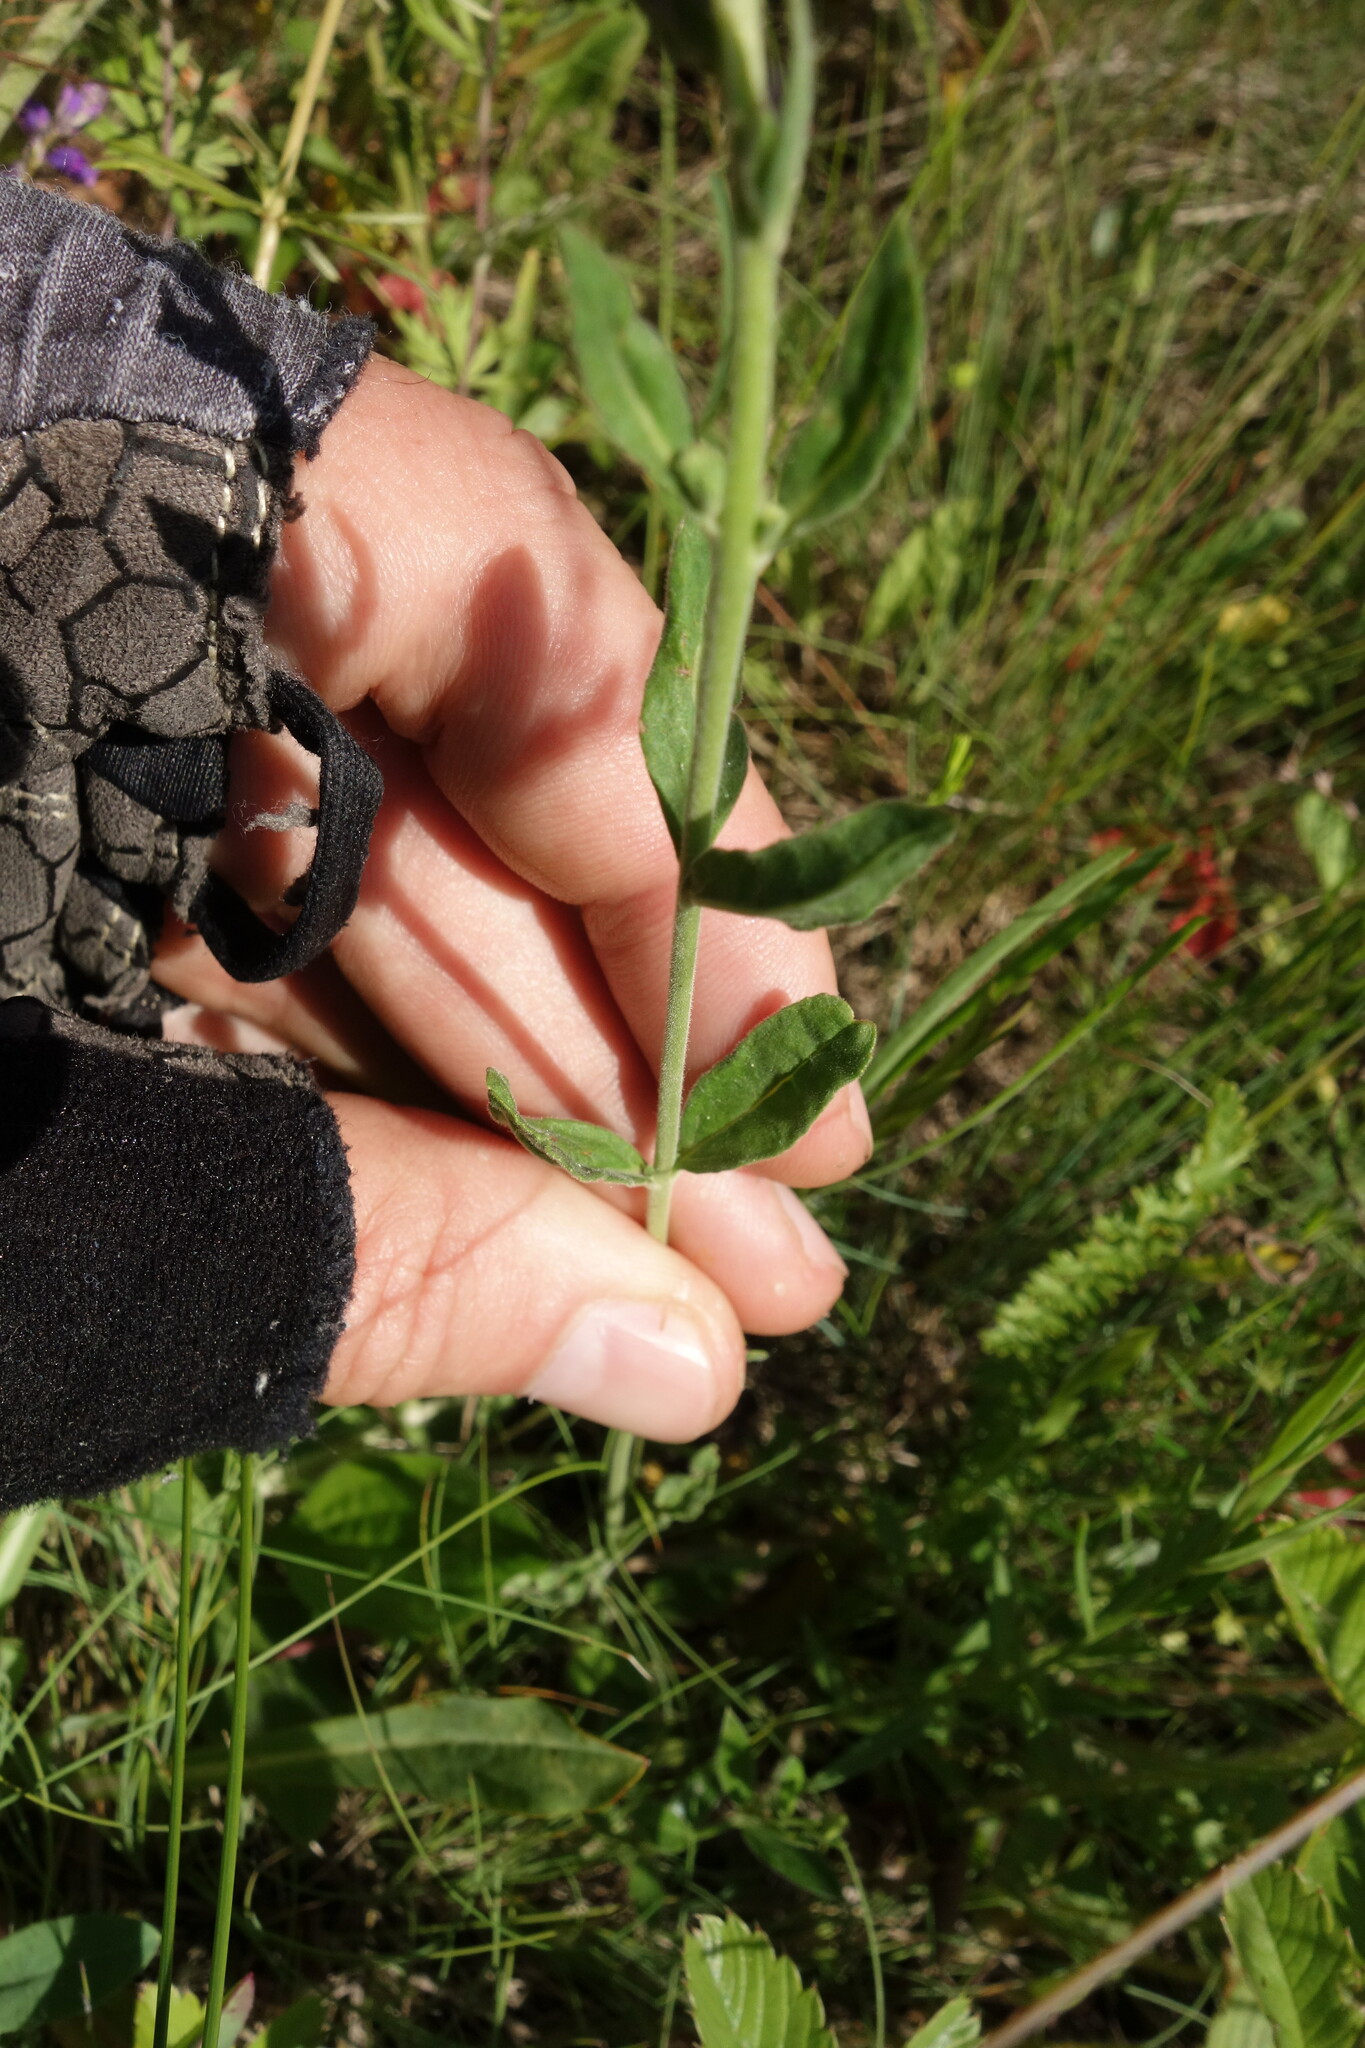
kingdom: Plantae
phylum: Tracheophyta
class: Magnoliopsida
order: Lamiales
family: Plantaginaceae
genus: Veronica
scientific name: Veronica spicata
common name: Spiked speedwell
